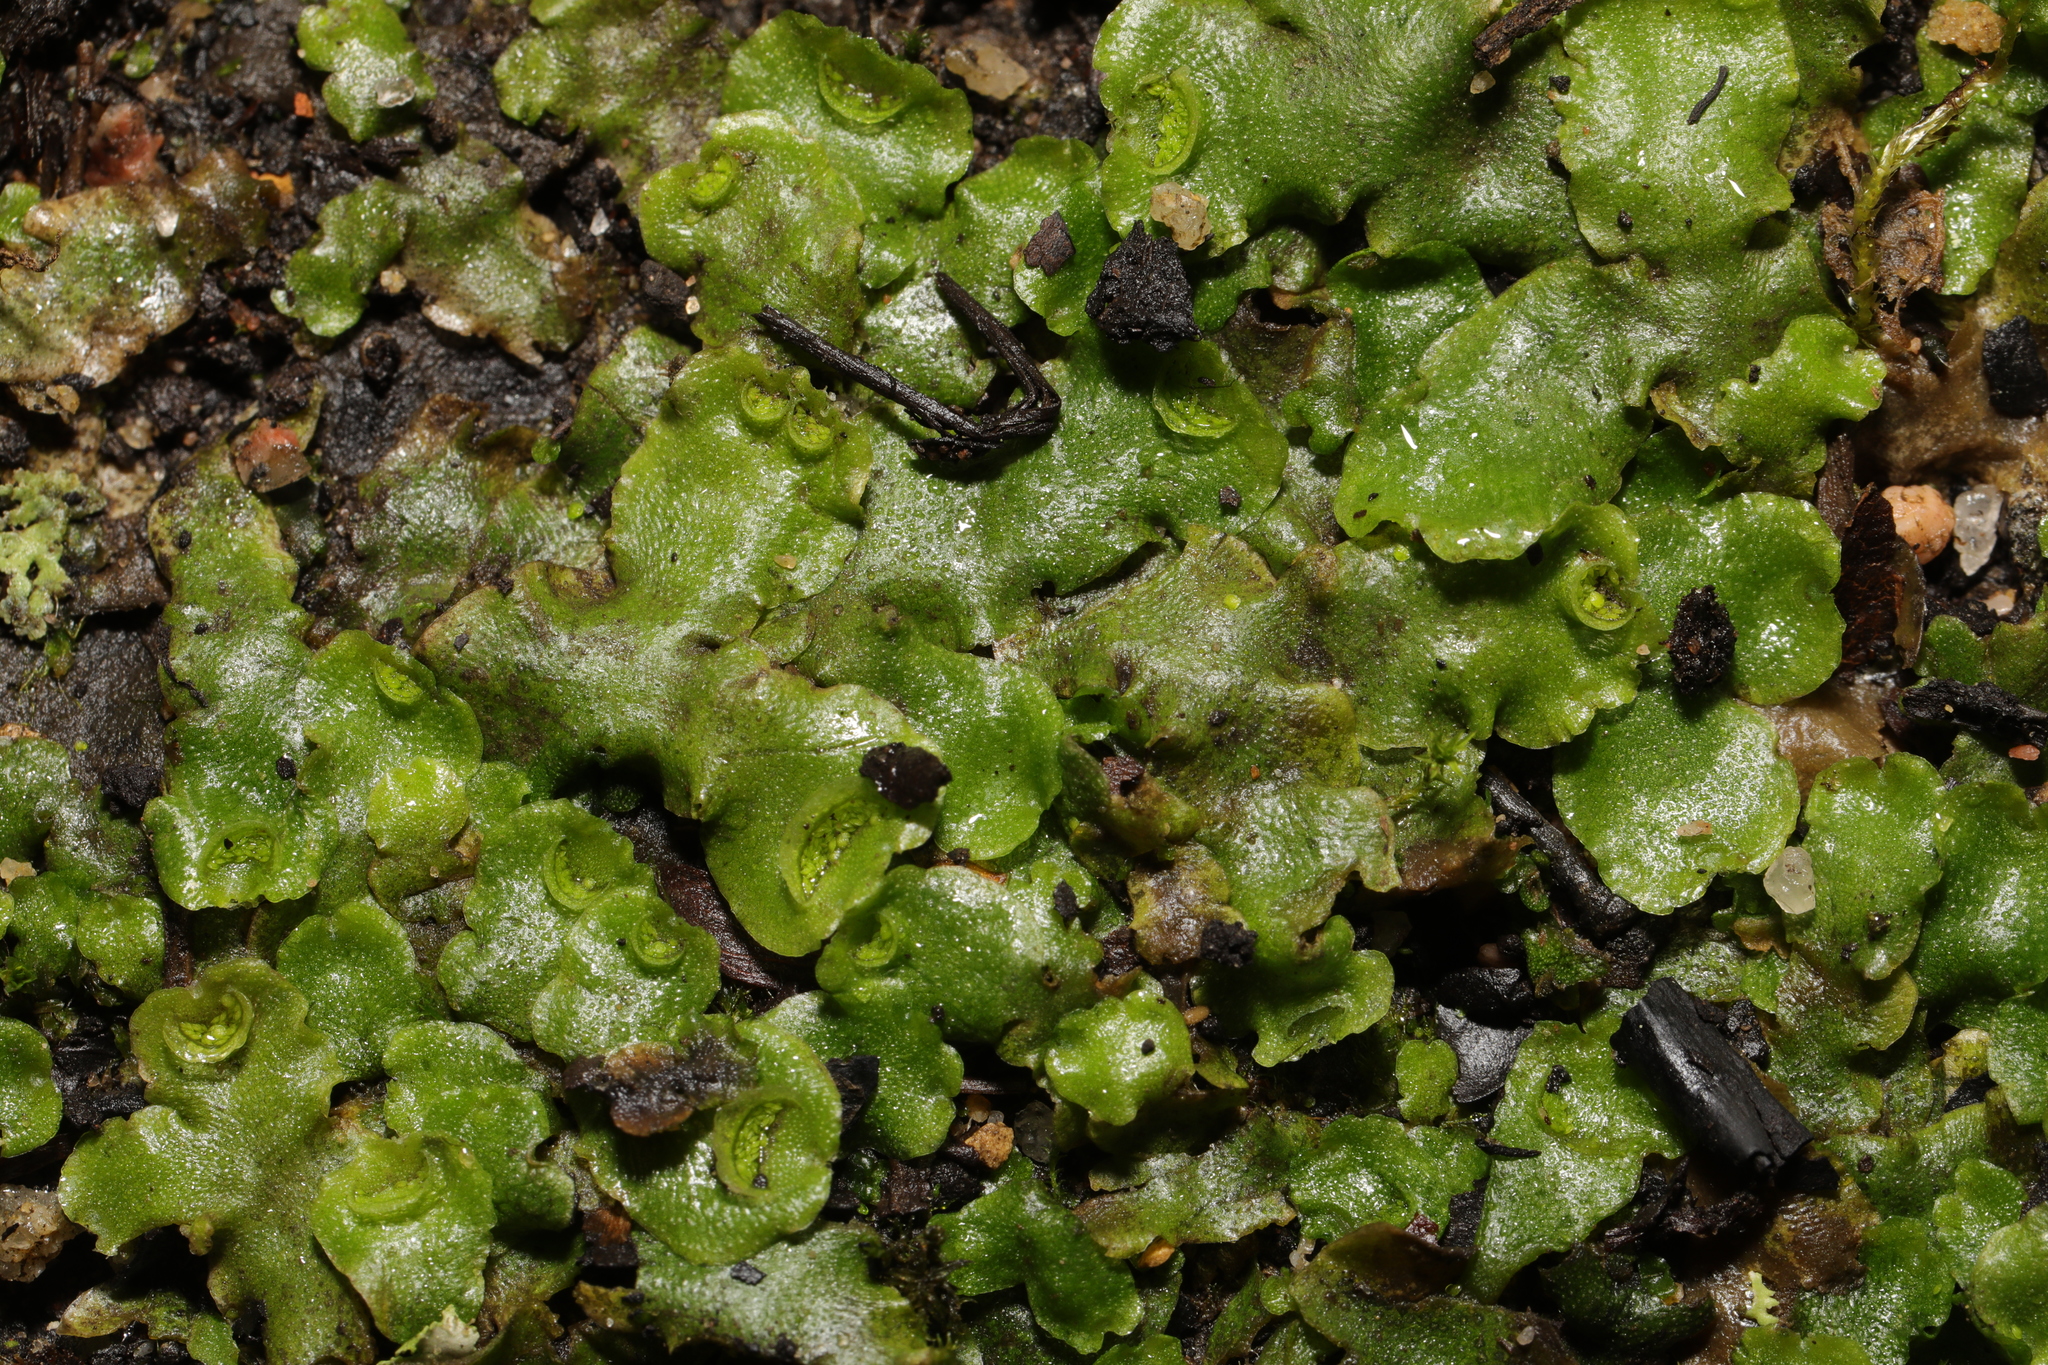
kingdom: Plantae
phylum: Marchantiophyta
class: Marchantiopsida
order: Lunulariales
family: Lunulariaceae
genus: Lunularia
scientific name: Lunularia cruciata
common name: Crescent-cup liverwort
